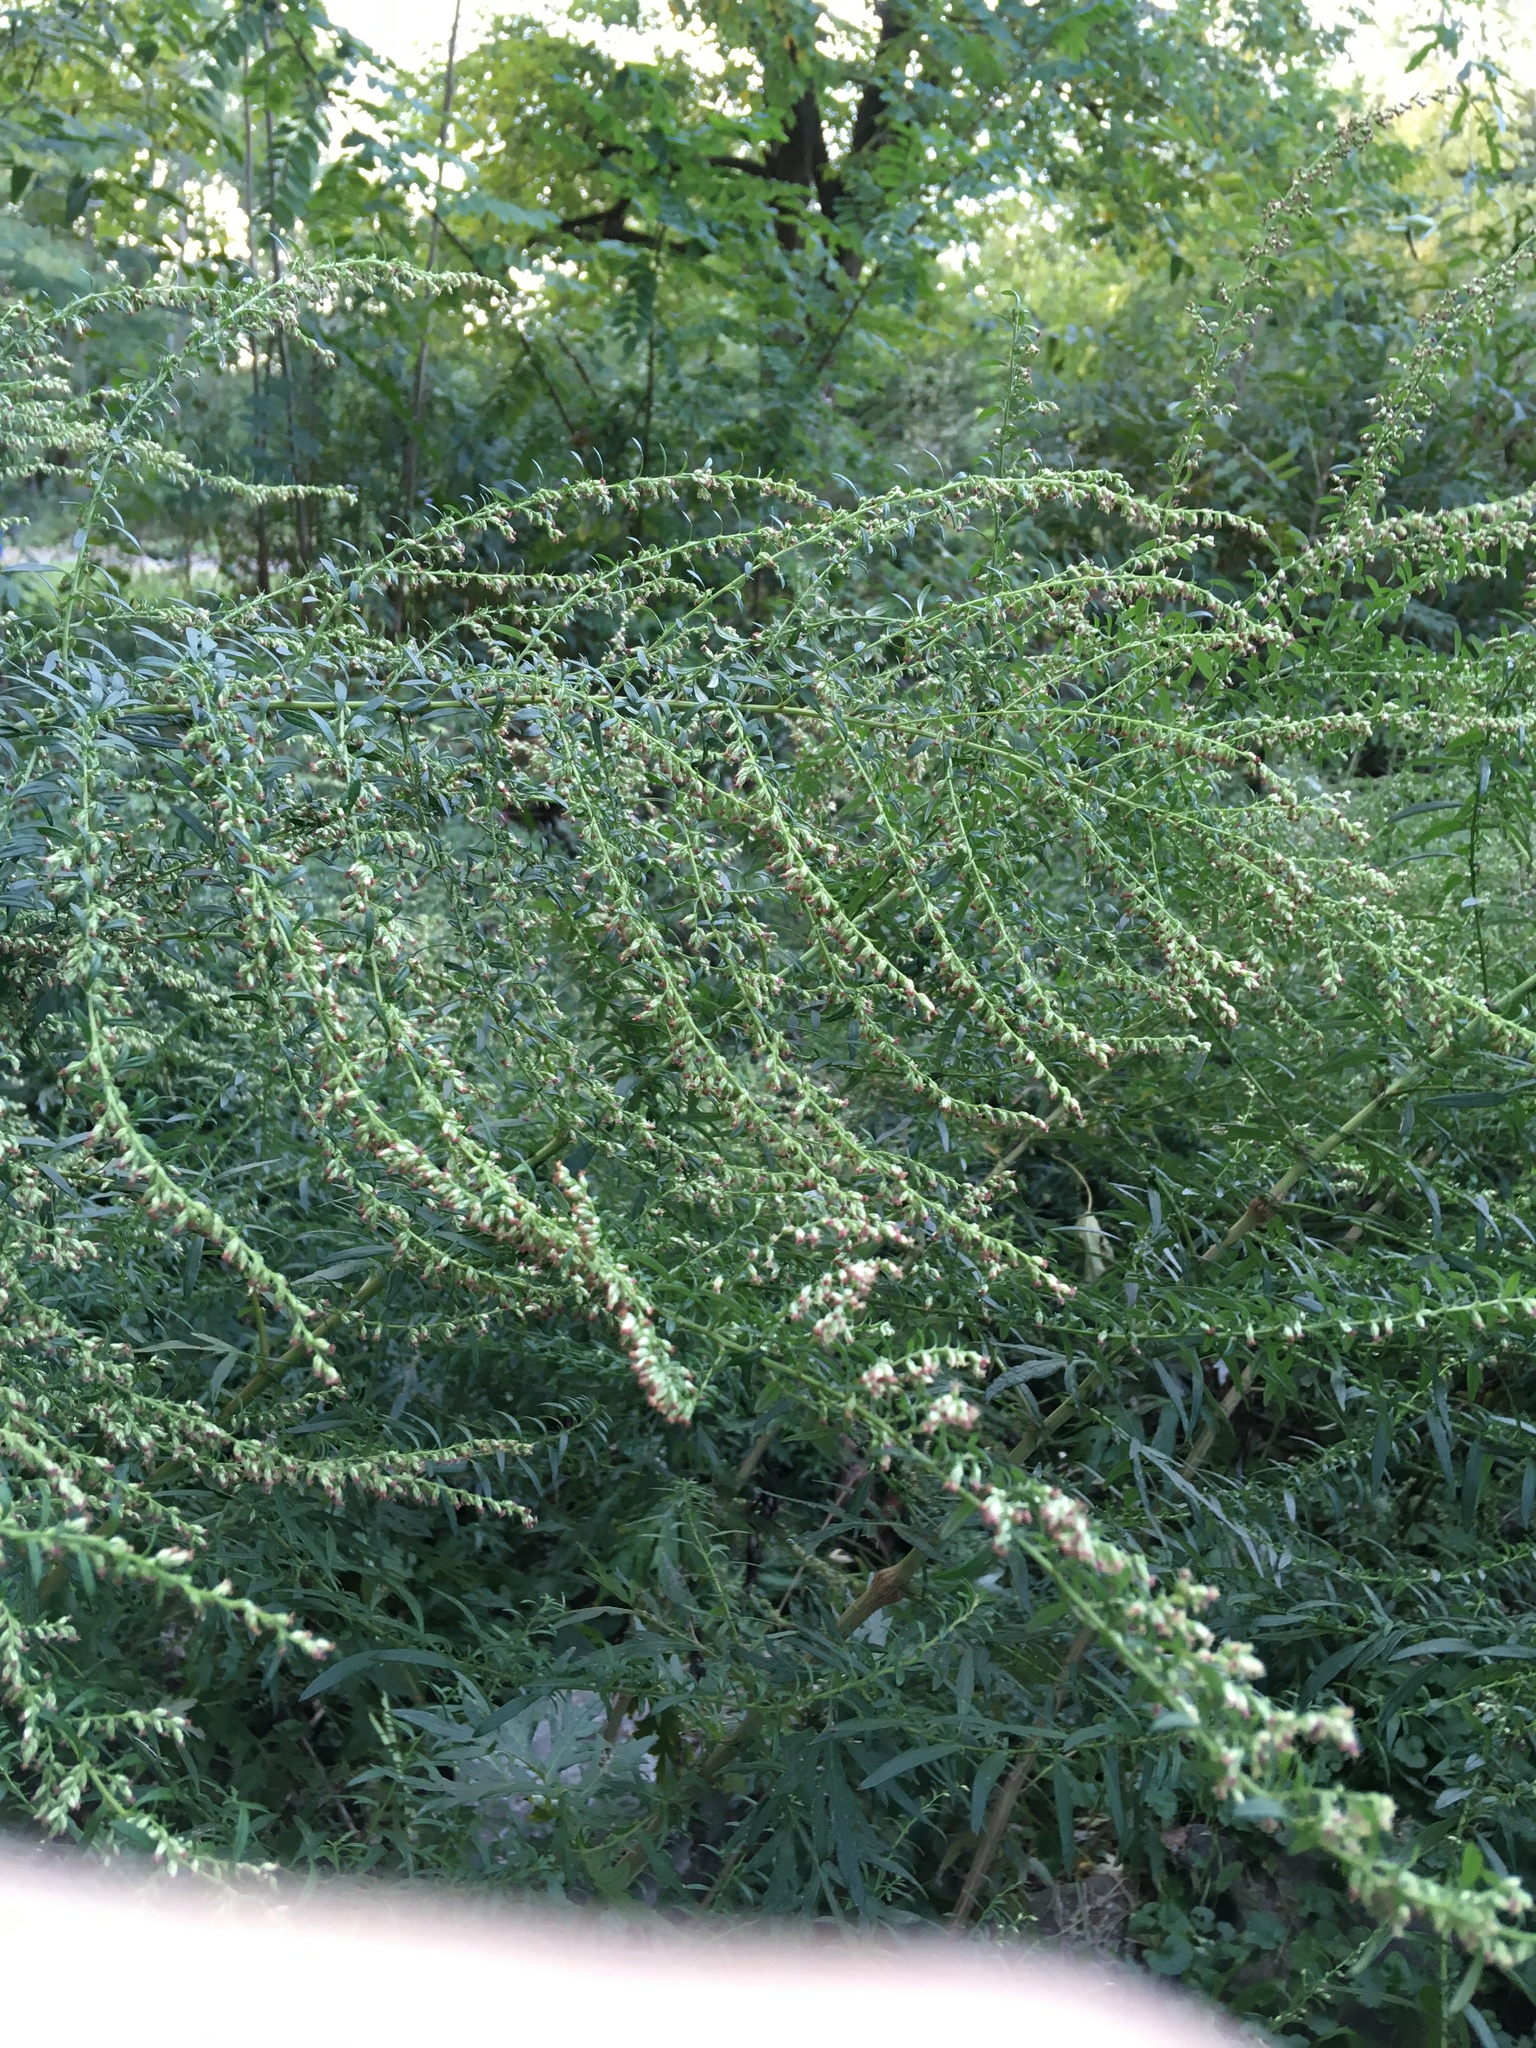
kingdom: Plantae
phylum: Tracheophyta
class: Magnoliopsida
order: Asterales
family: Asteraceae
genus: Artemisia
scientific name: Artemisia vulgaris
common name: Mugwort
